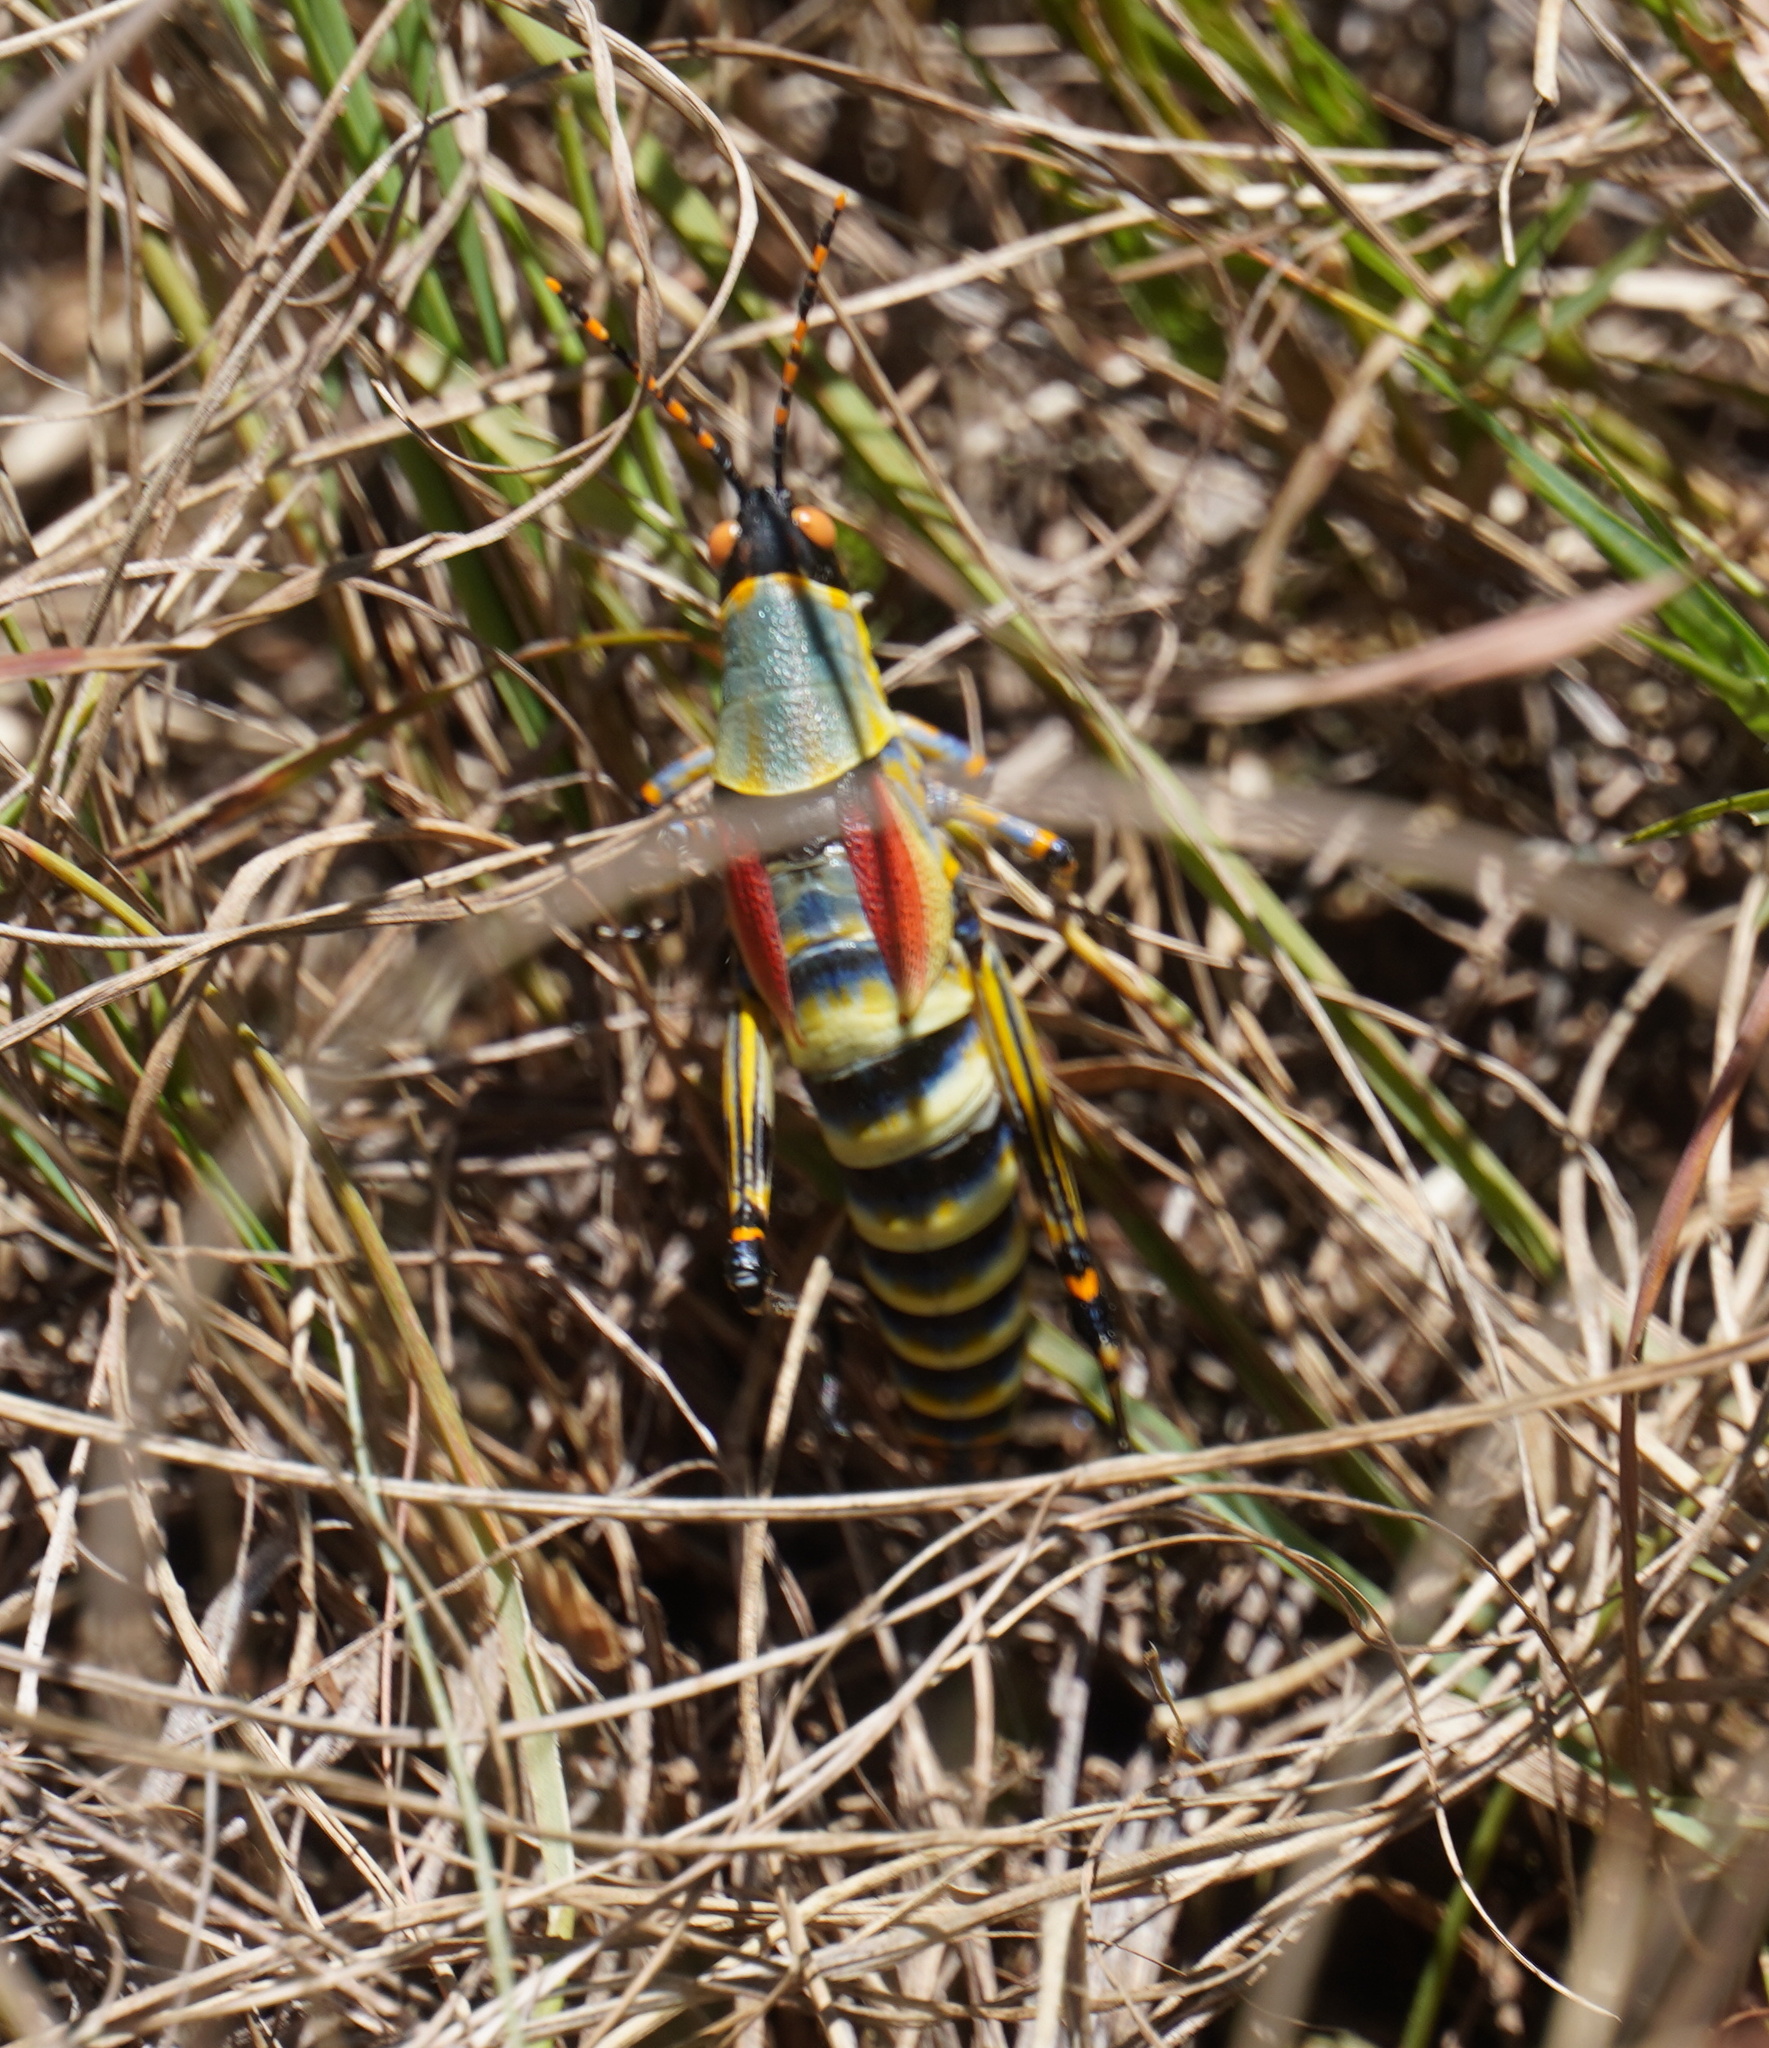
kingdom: Animalia
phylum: Arthropoda
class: Insecta
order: Orthoptera
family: Pyrgomorphidae
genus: Zonocerus
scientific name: Zonocerus elegans
